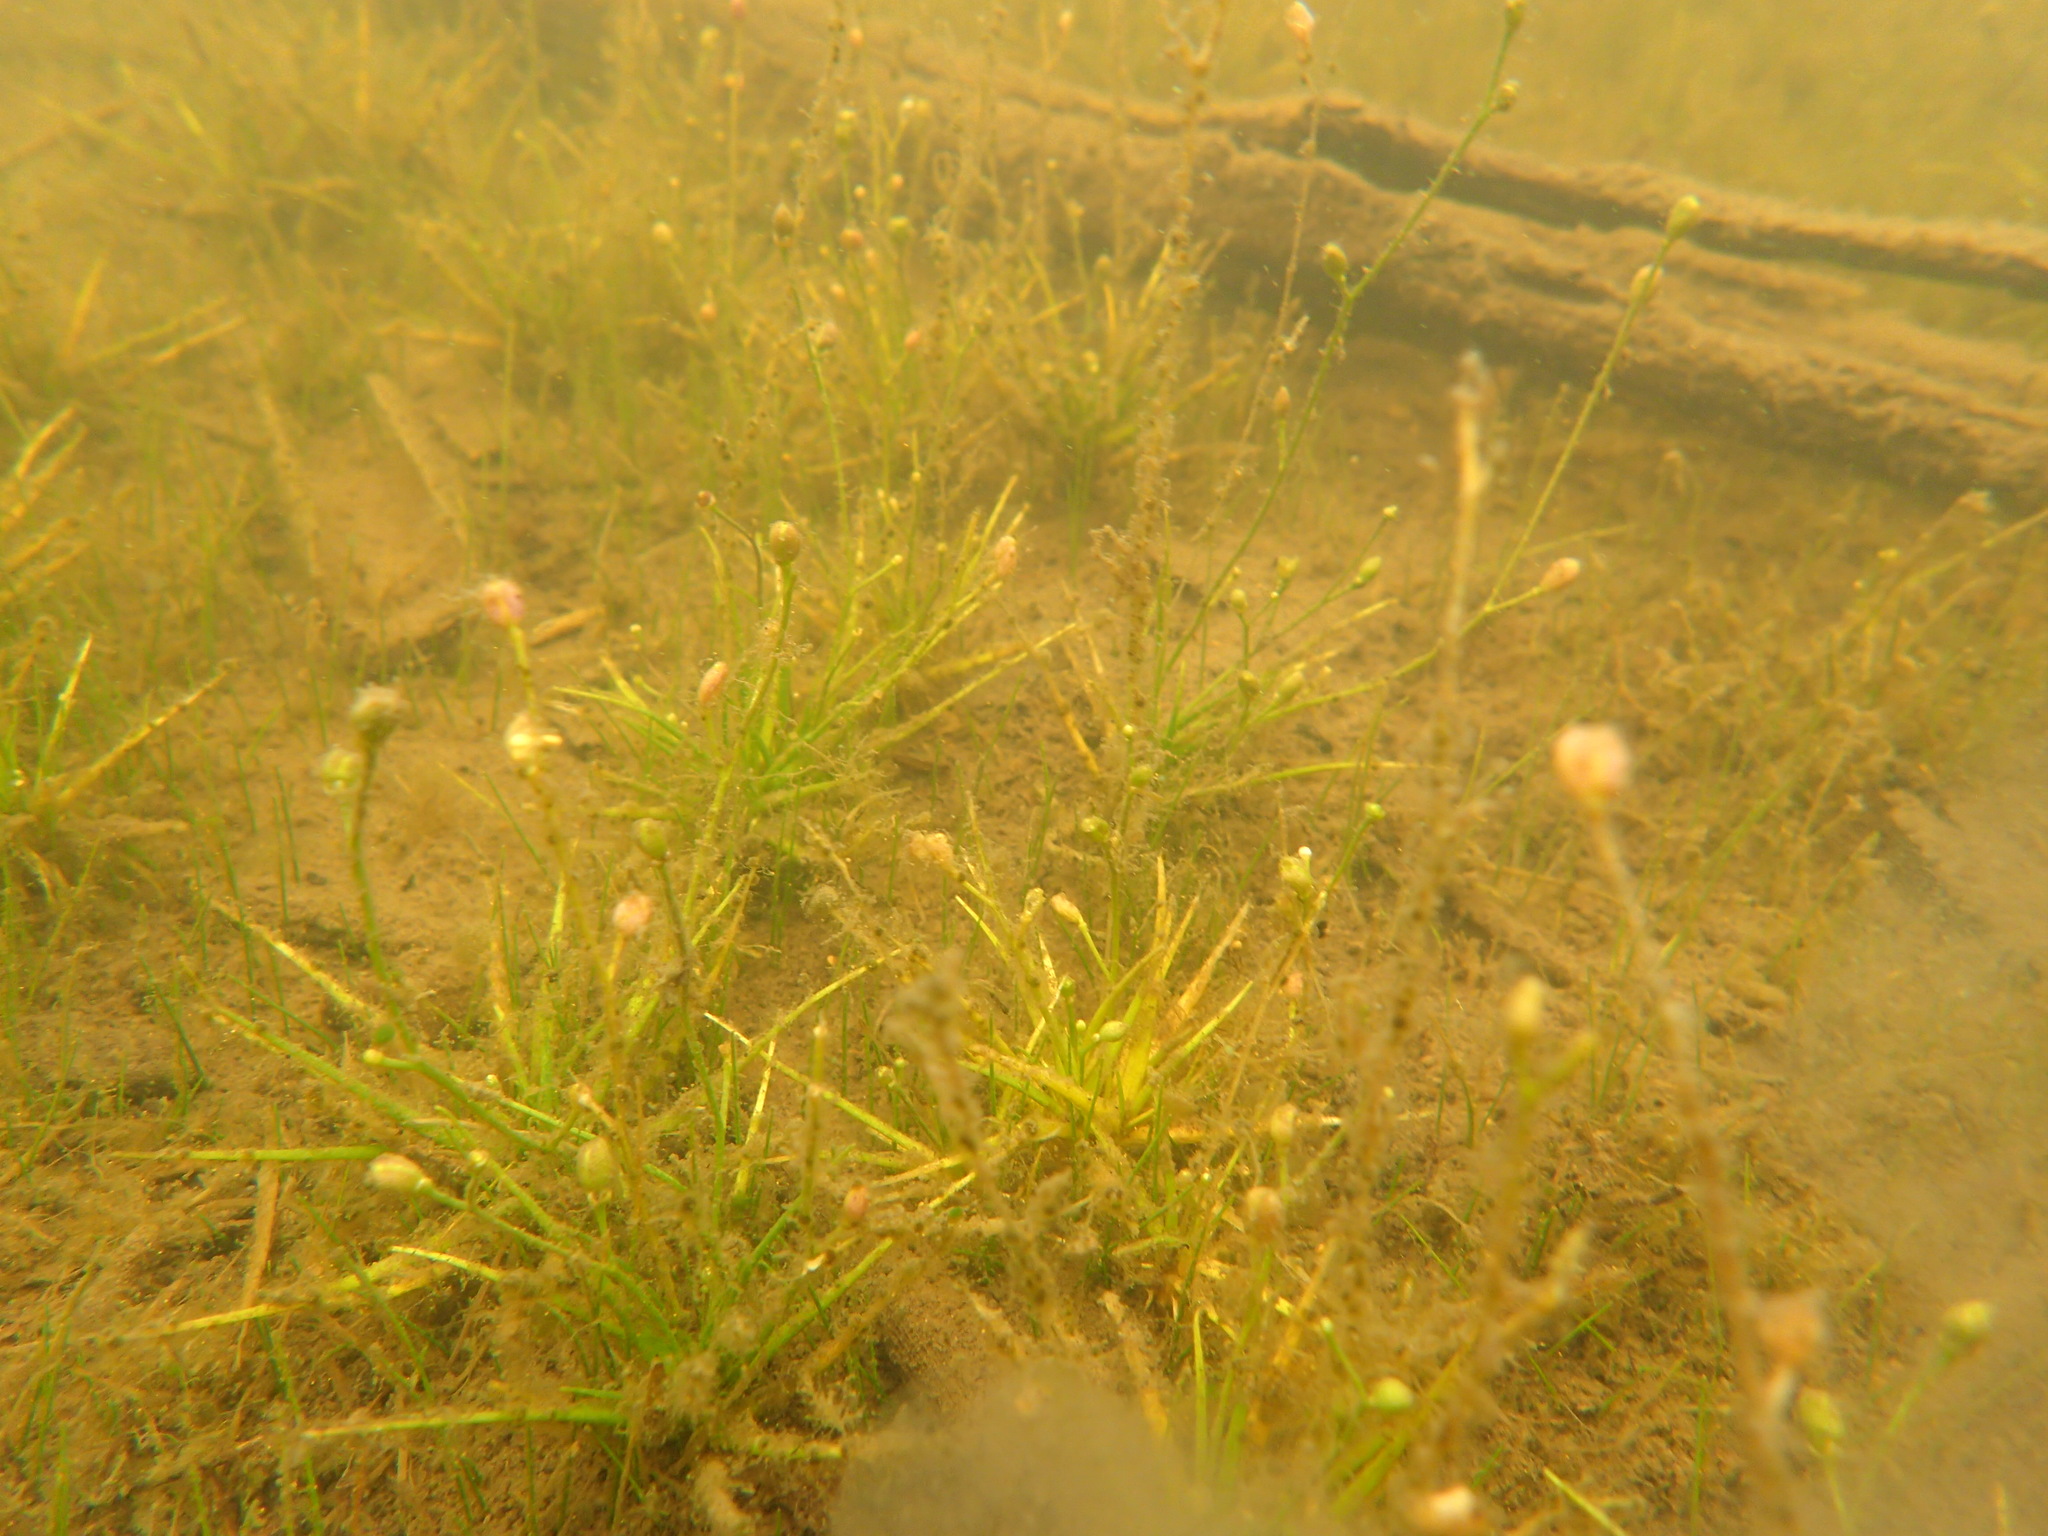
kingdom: Plantae
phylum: Tracheophyta
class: Magnoliopsida
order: Brassicales
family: Brassicaceae
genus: Subularia
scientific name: Subularia aquatica
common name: Awlwort
